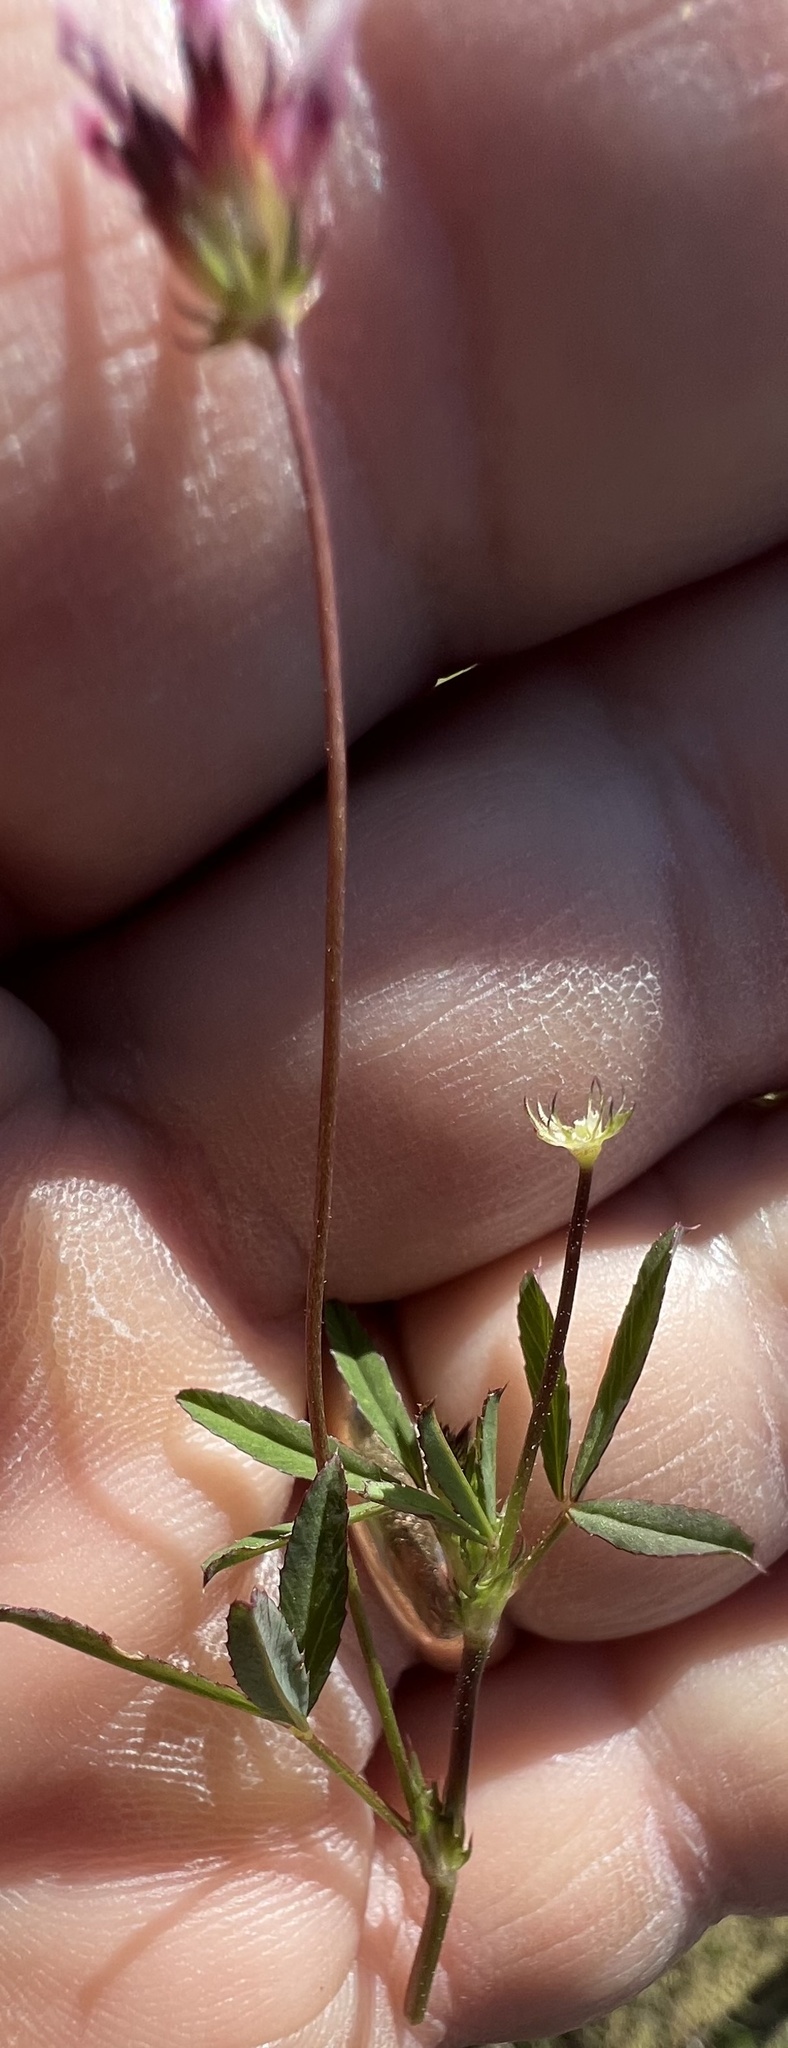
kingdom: Plantae
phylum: Tracheophyta
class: Magnoliopsida
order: Fabales
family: Fabaceae
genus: Trifolium
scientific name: Trifolium oliganthum
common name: Few-flower clover
